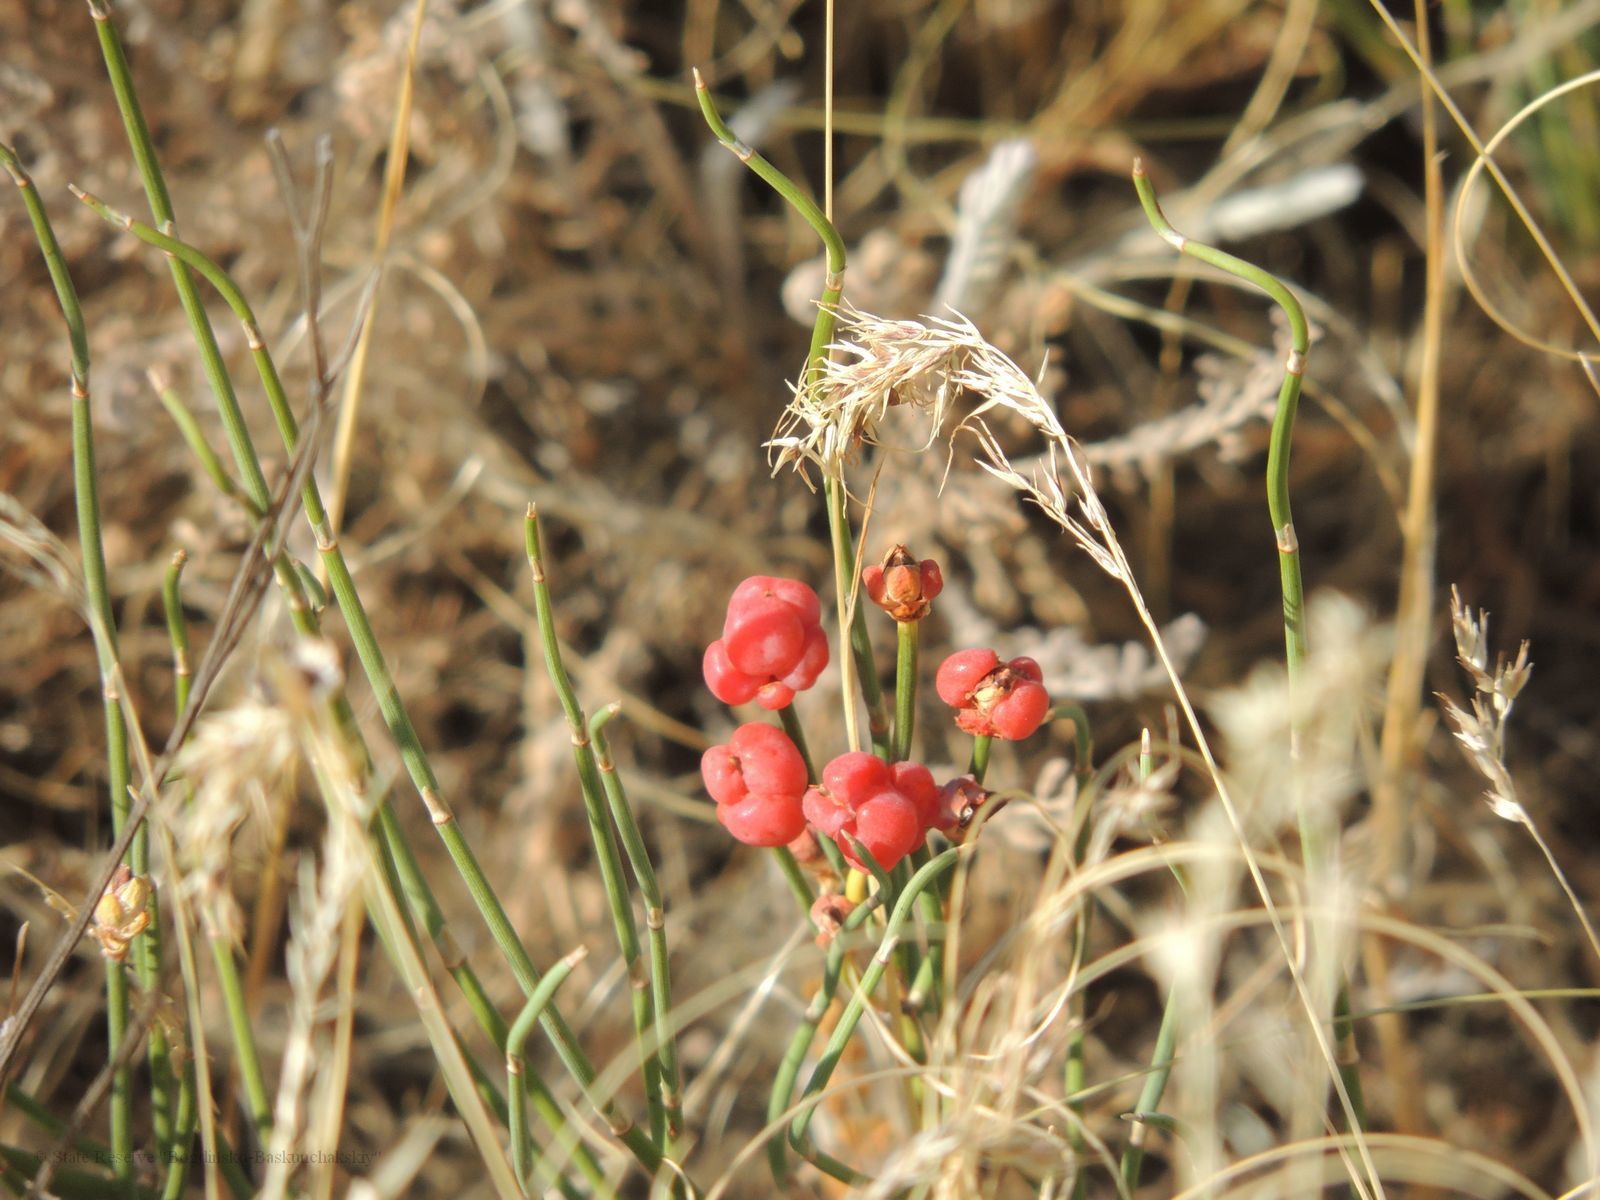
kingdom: Plantae
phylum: Tracheophyta
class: Gnetopsida
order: Ephedrales
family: Ephedraceae
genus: Ephedra
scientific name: Ephedra distachya
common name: Sea grape
